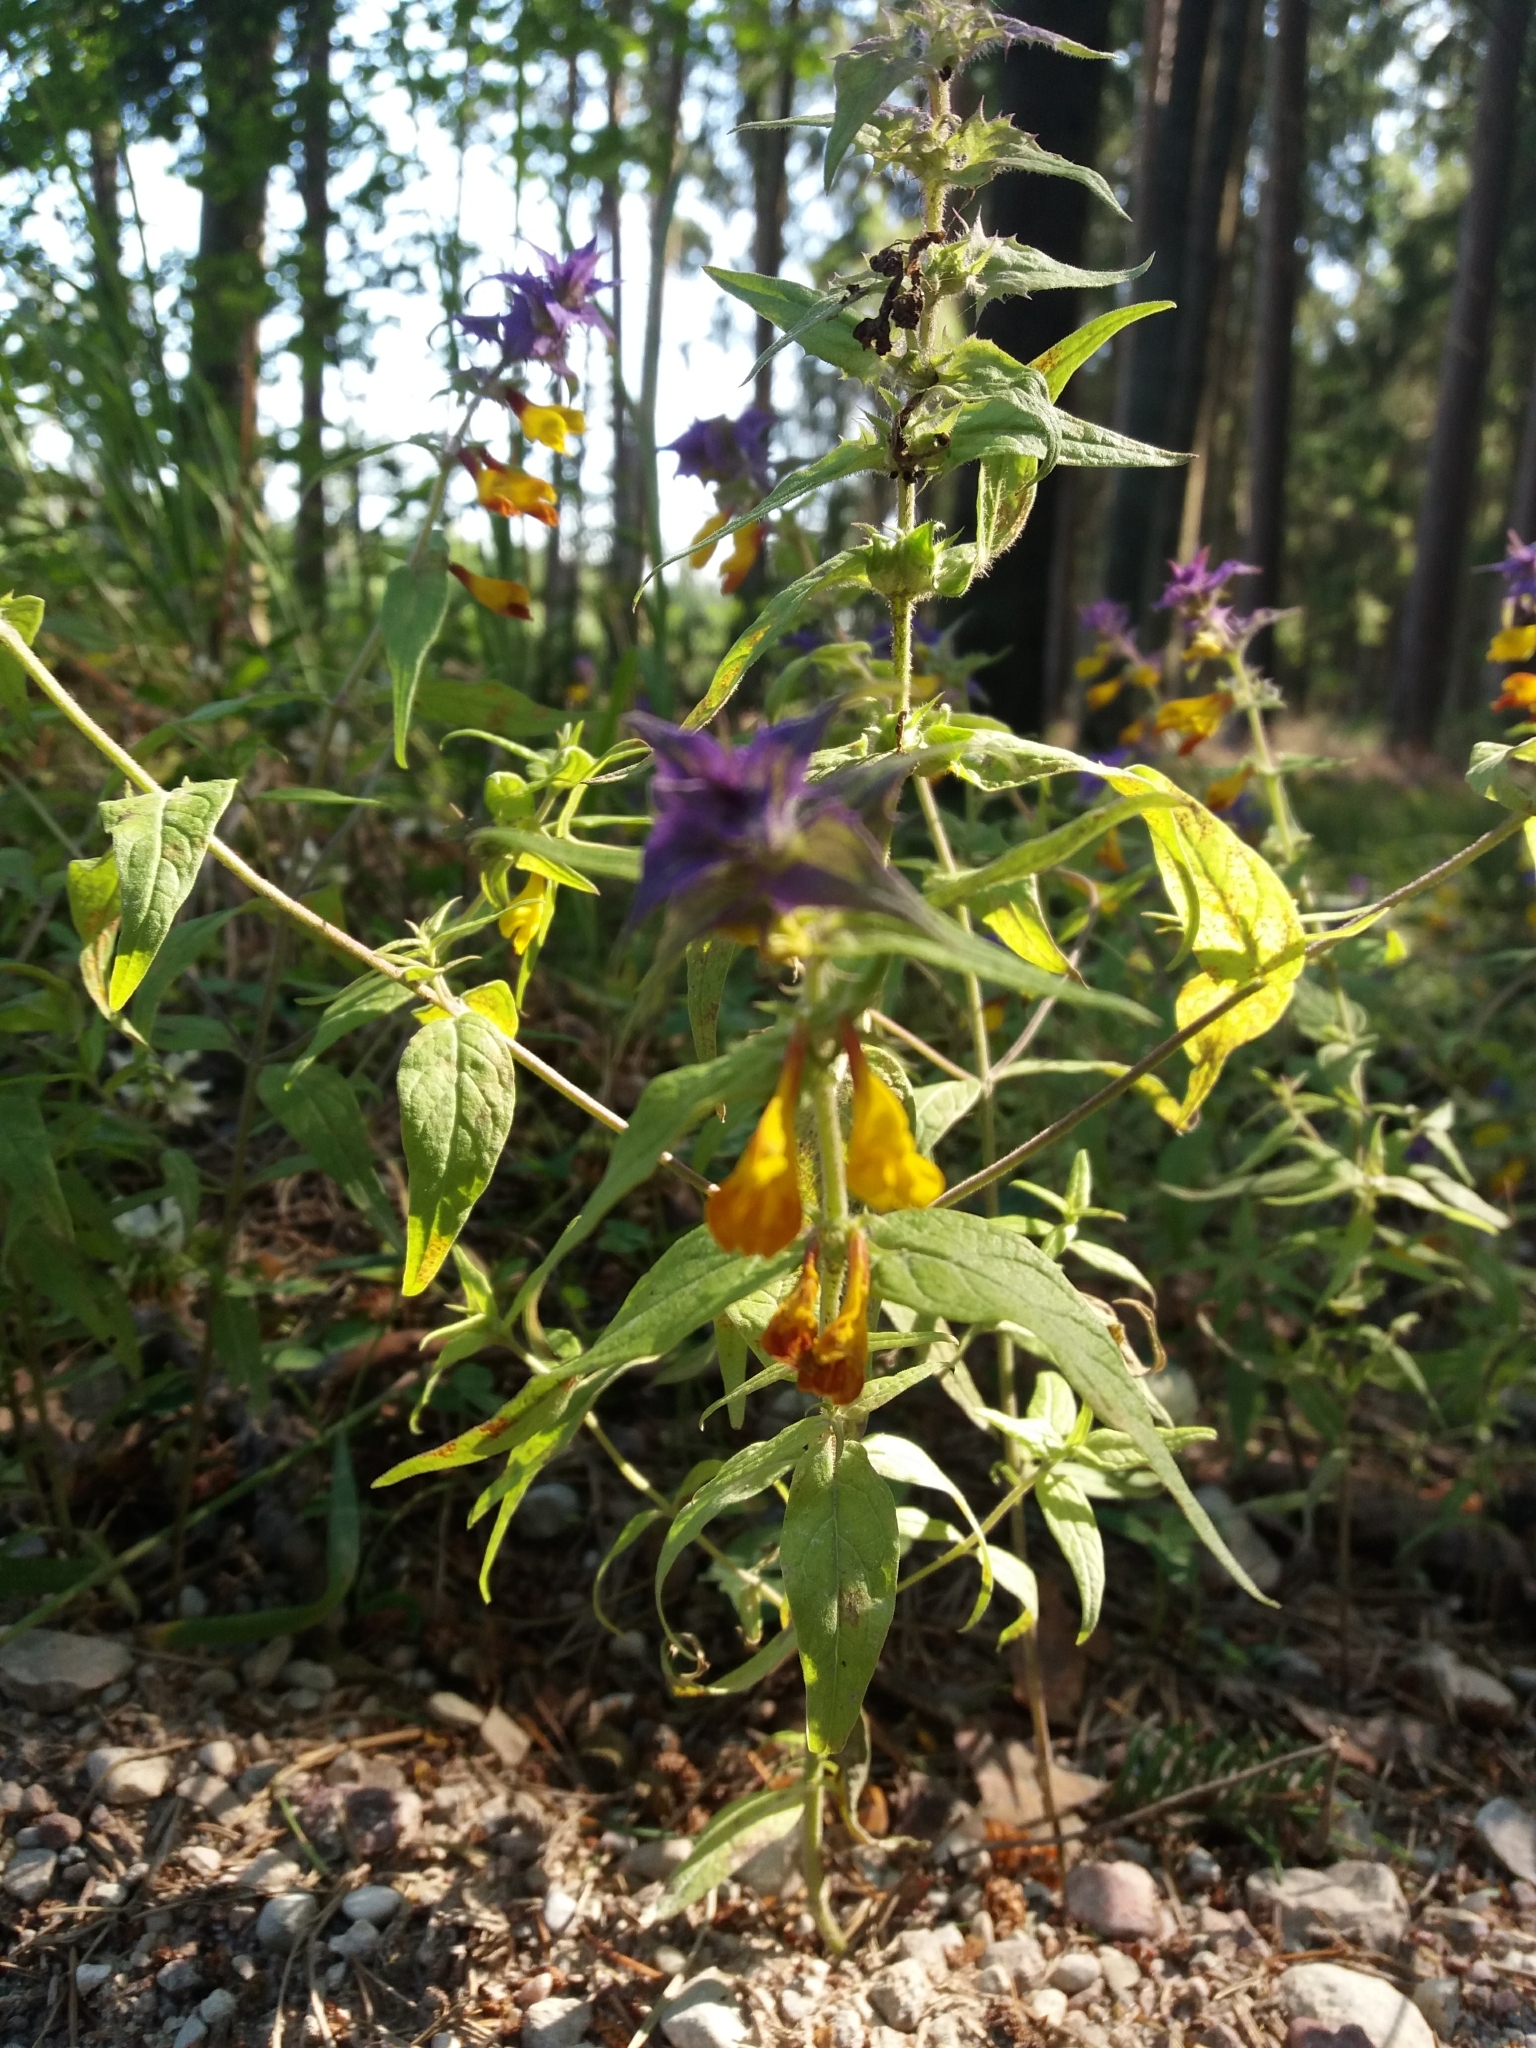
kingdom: Plantae
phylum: Tracheophyta
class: Magnoliopsida
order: Lamiales
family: Orobanchaceae
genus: Melampyrum
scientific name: Melampyrum nemorosum
